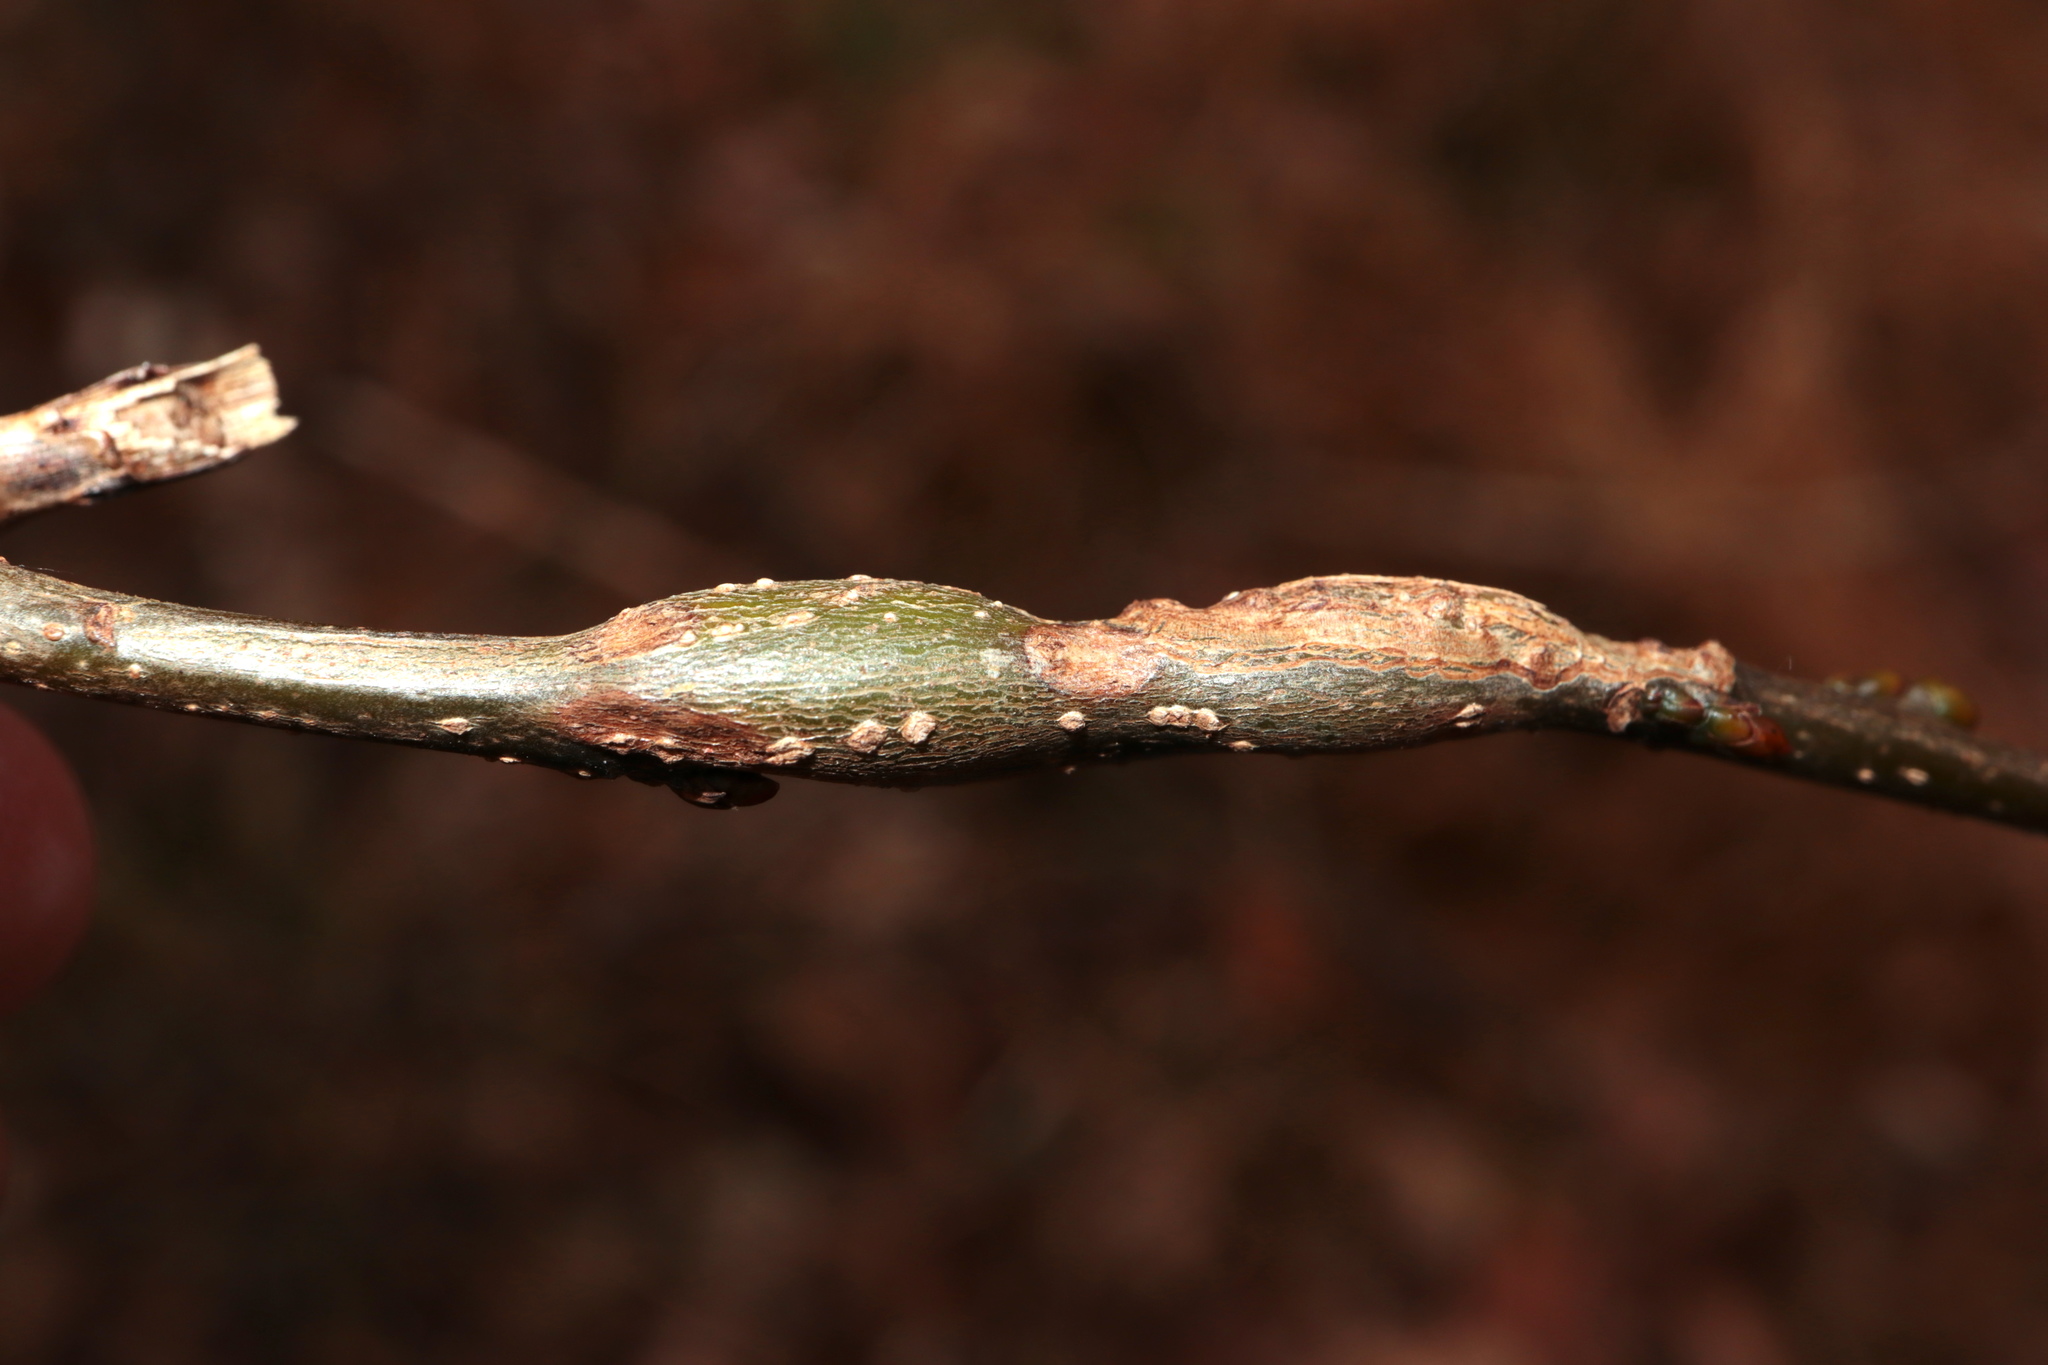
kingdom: Animalia
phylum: Arthropoda
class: Insecta
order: Diptera
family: Cecidomyiidae
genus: Neolasioptera
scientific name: Neolasioptera linderae
